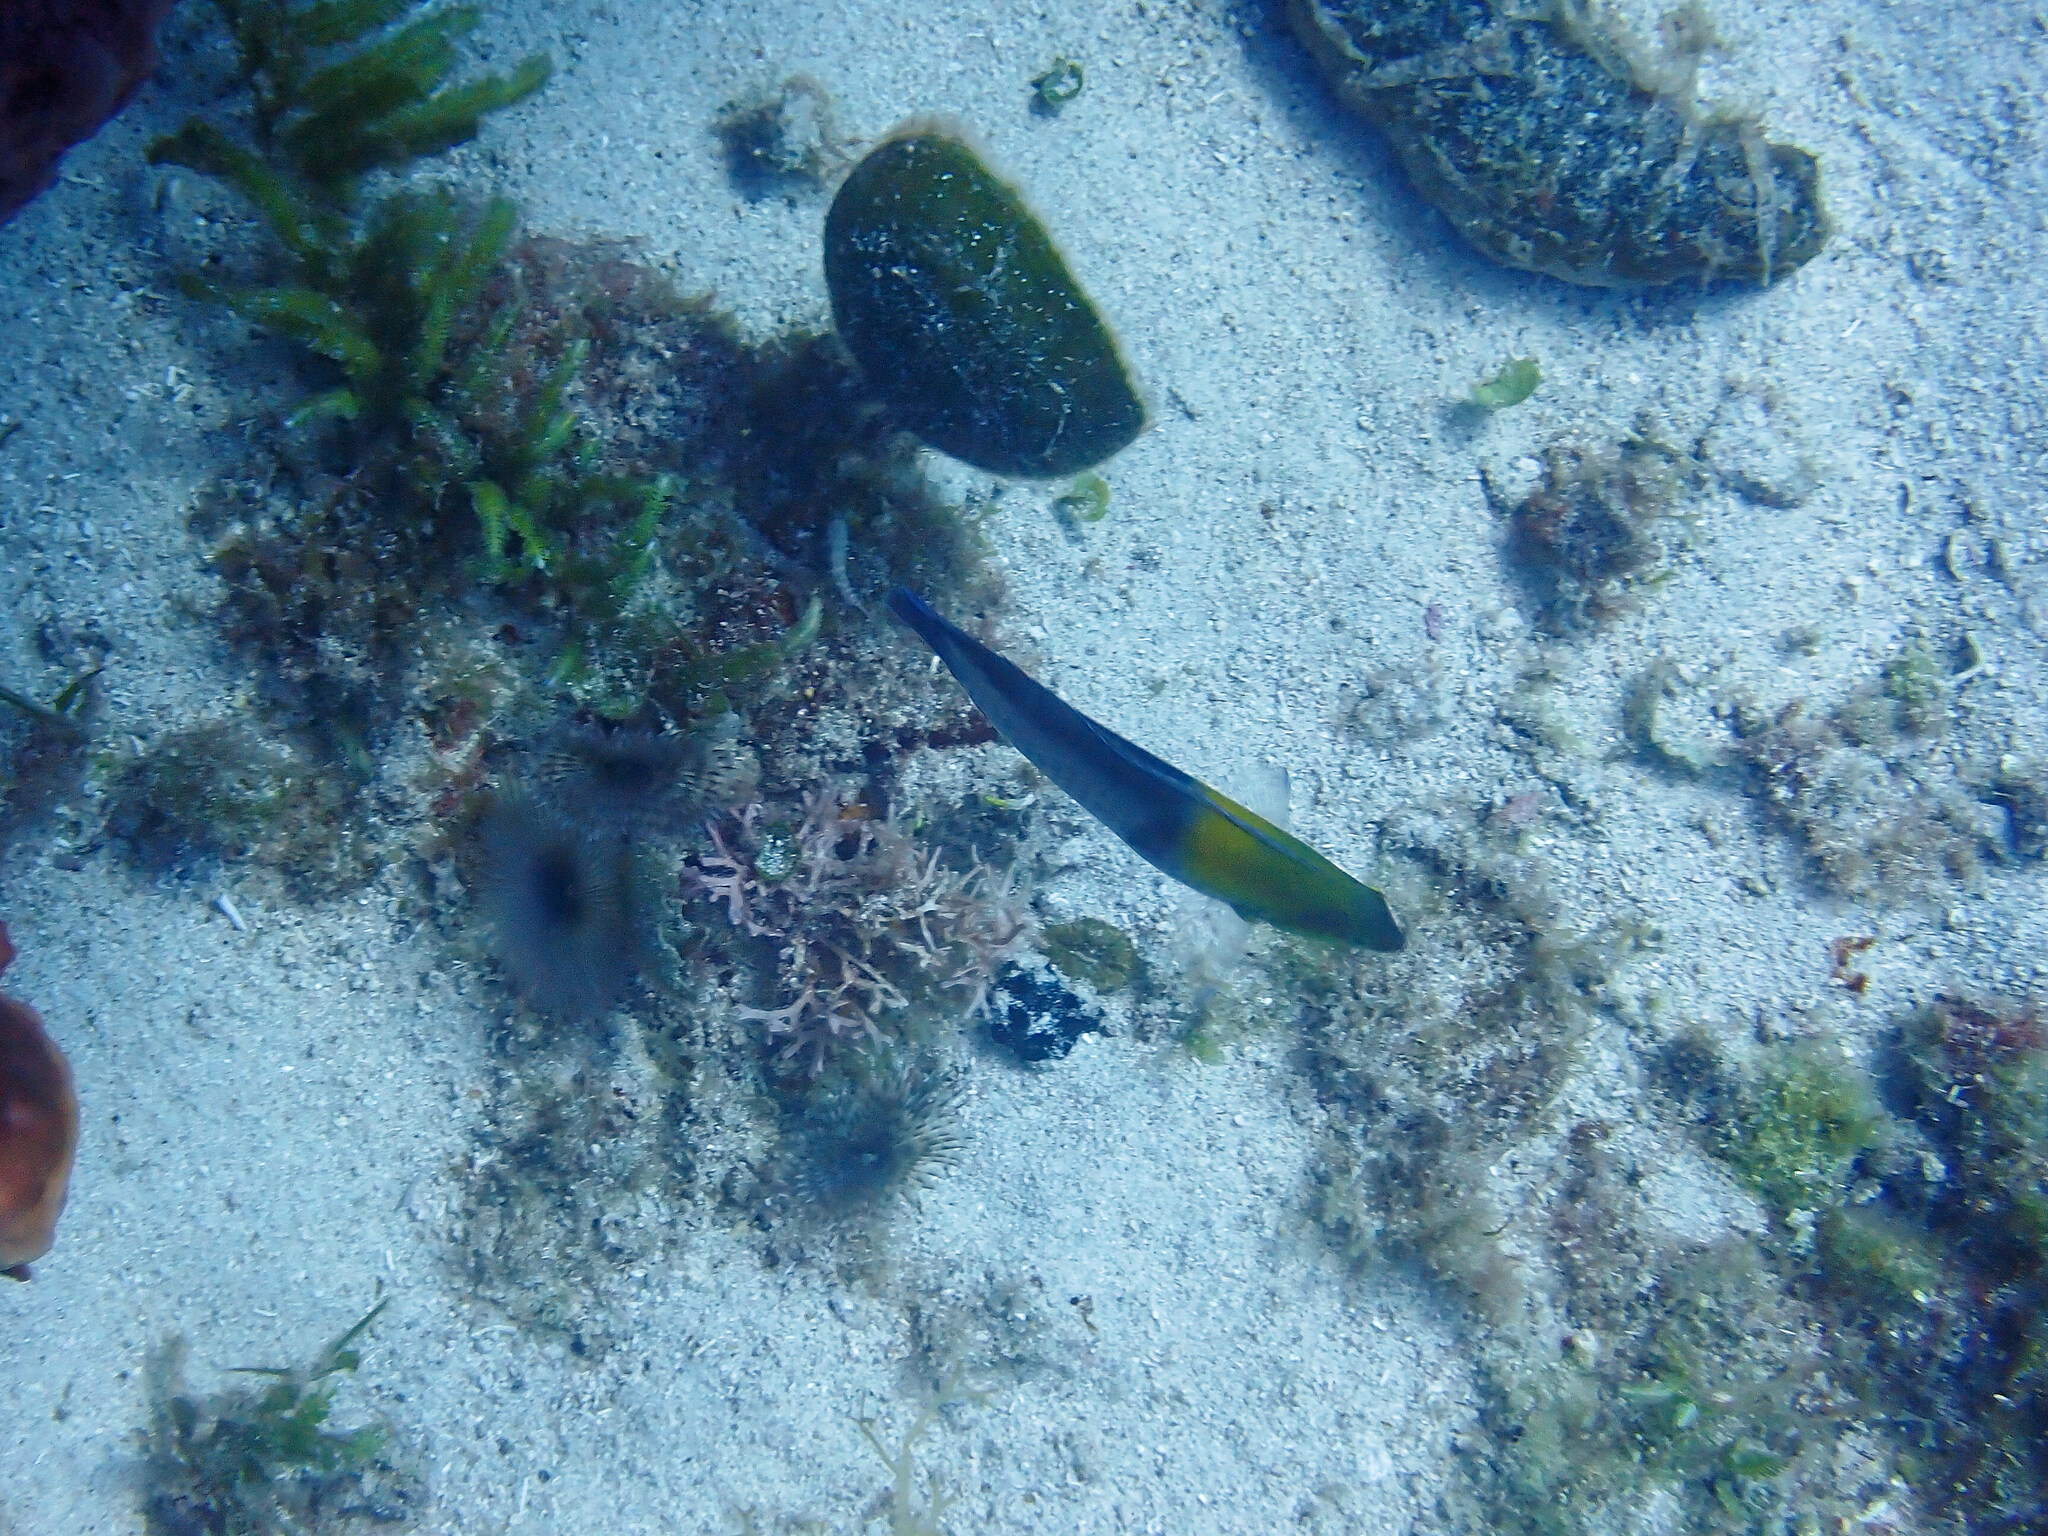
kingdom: Animalia
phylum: Chordata
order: Perciformes
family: Labridae
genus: Halichoeres
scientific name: Halichoeres garnoti
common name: Yellowhead wrasse
